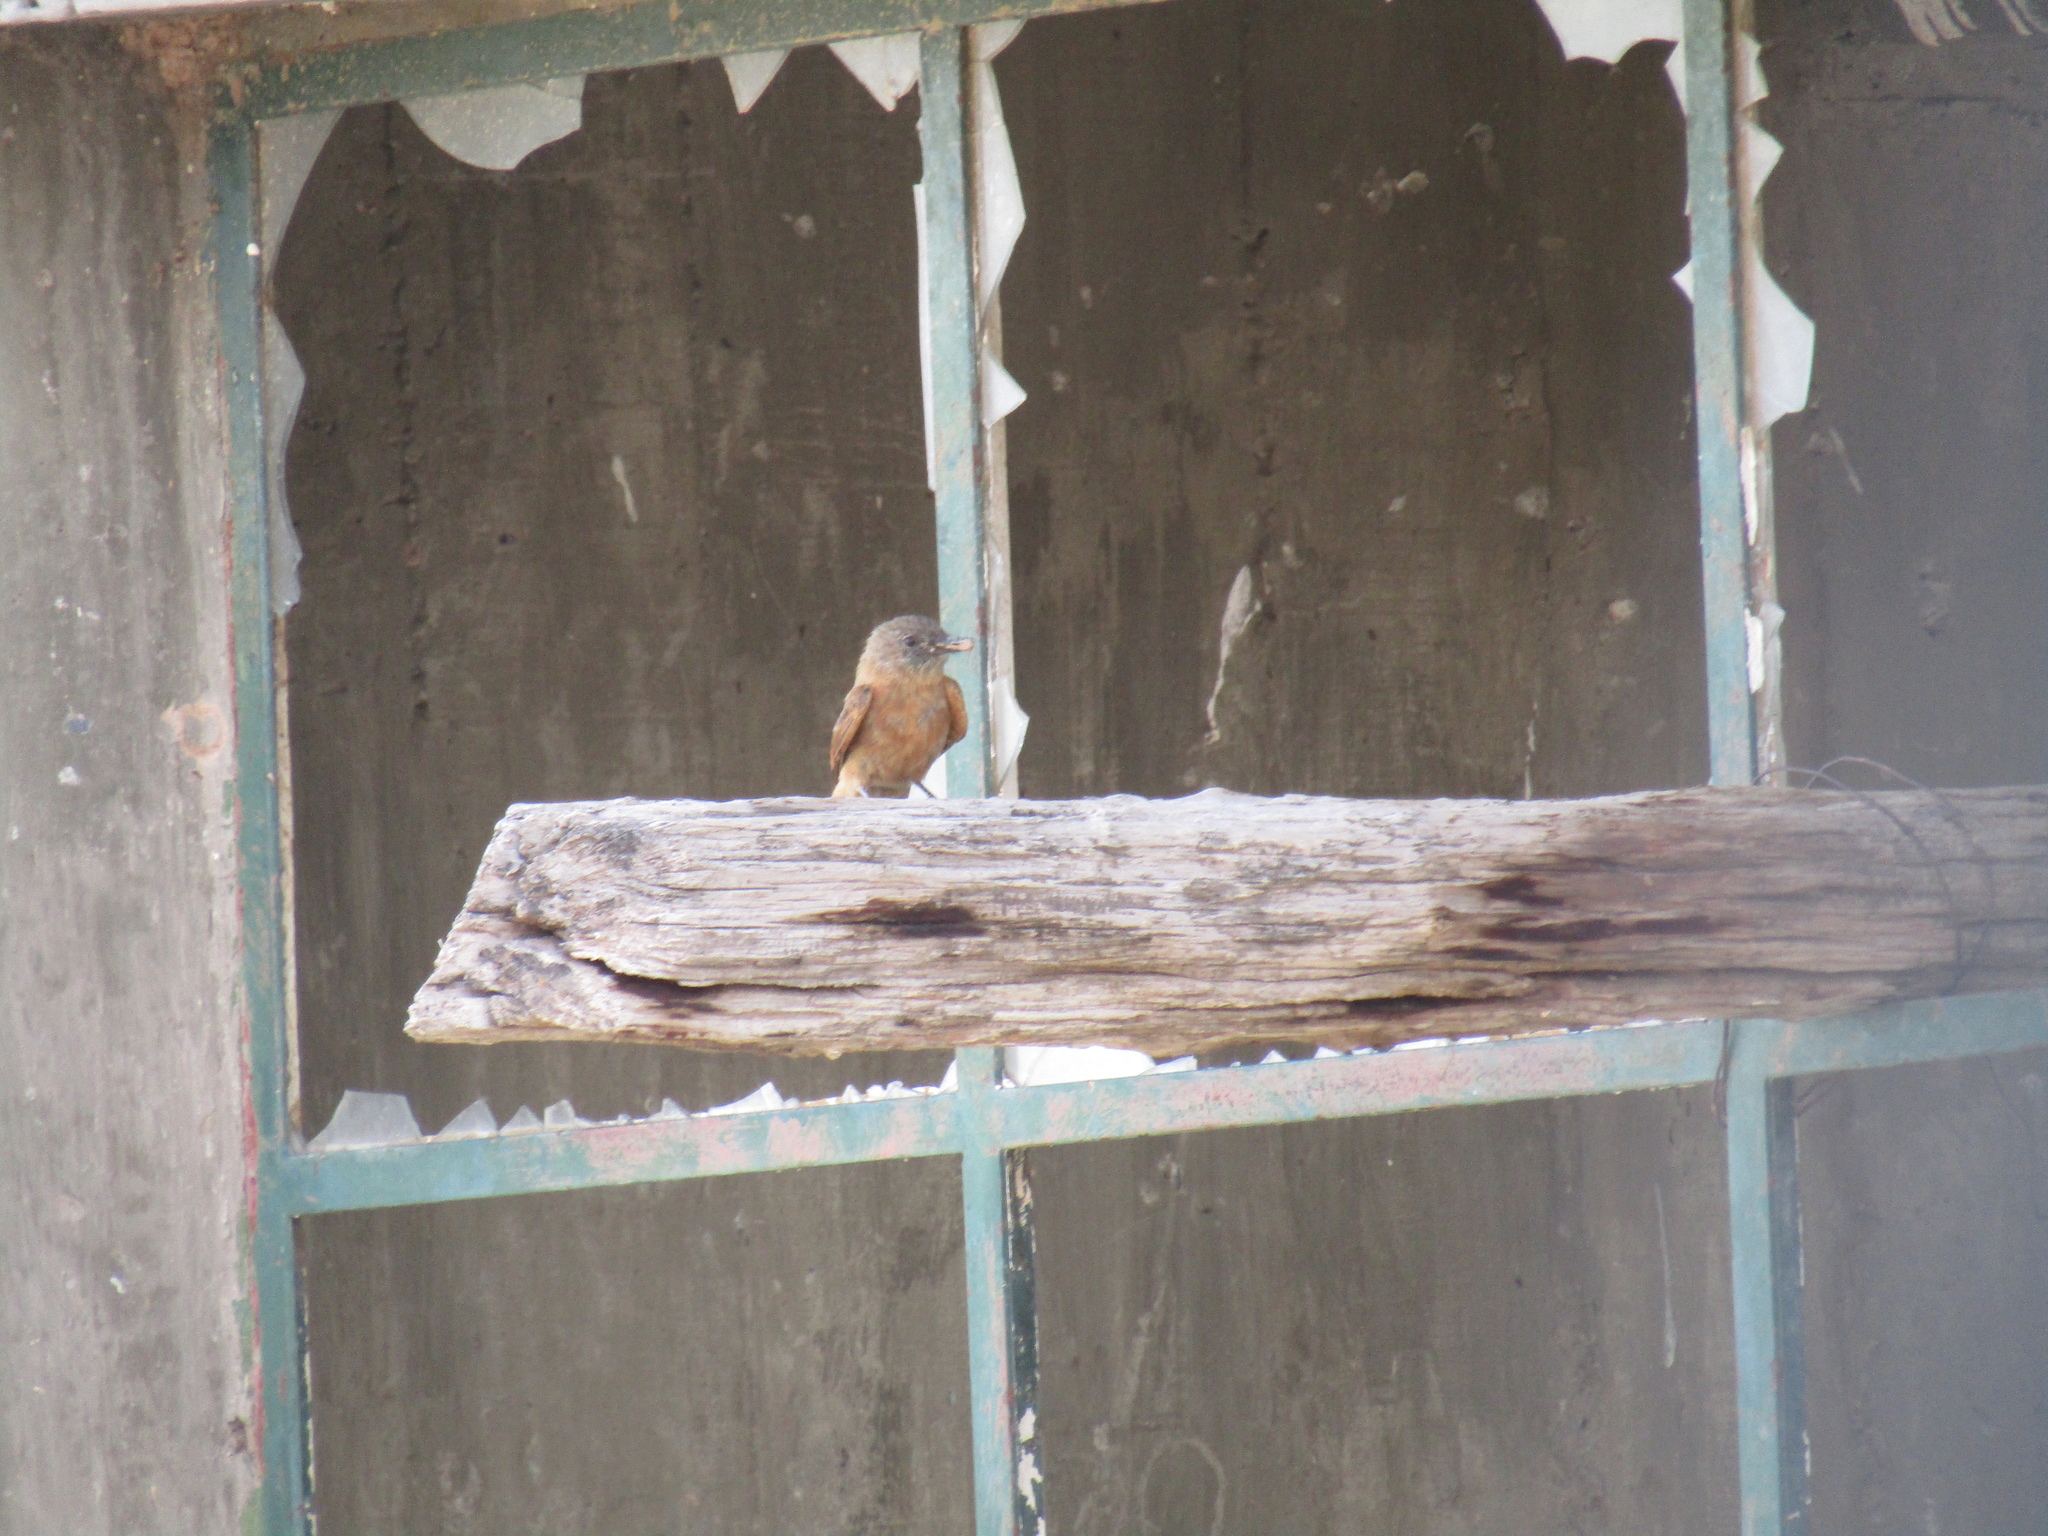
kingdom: Animalia
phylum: Chordata
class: Aves
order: Passeriformes
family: Tyrannidae
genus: Hirundinea
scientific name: Hirundinea ferruginea
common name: Cliff flycatcher
